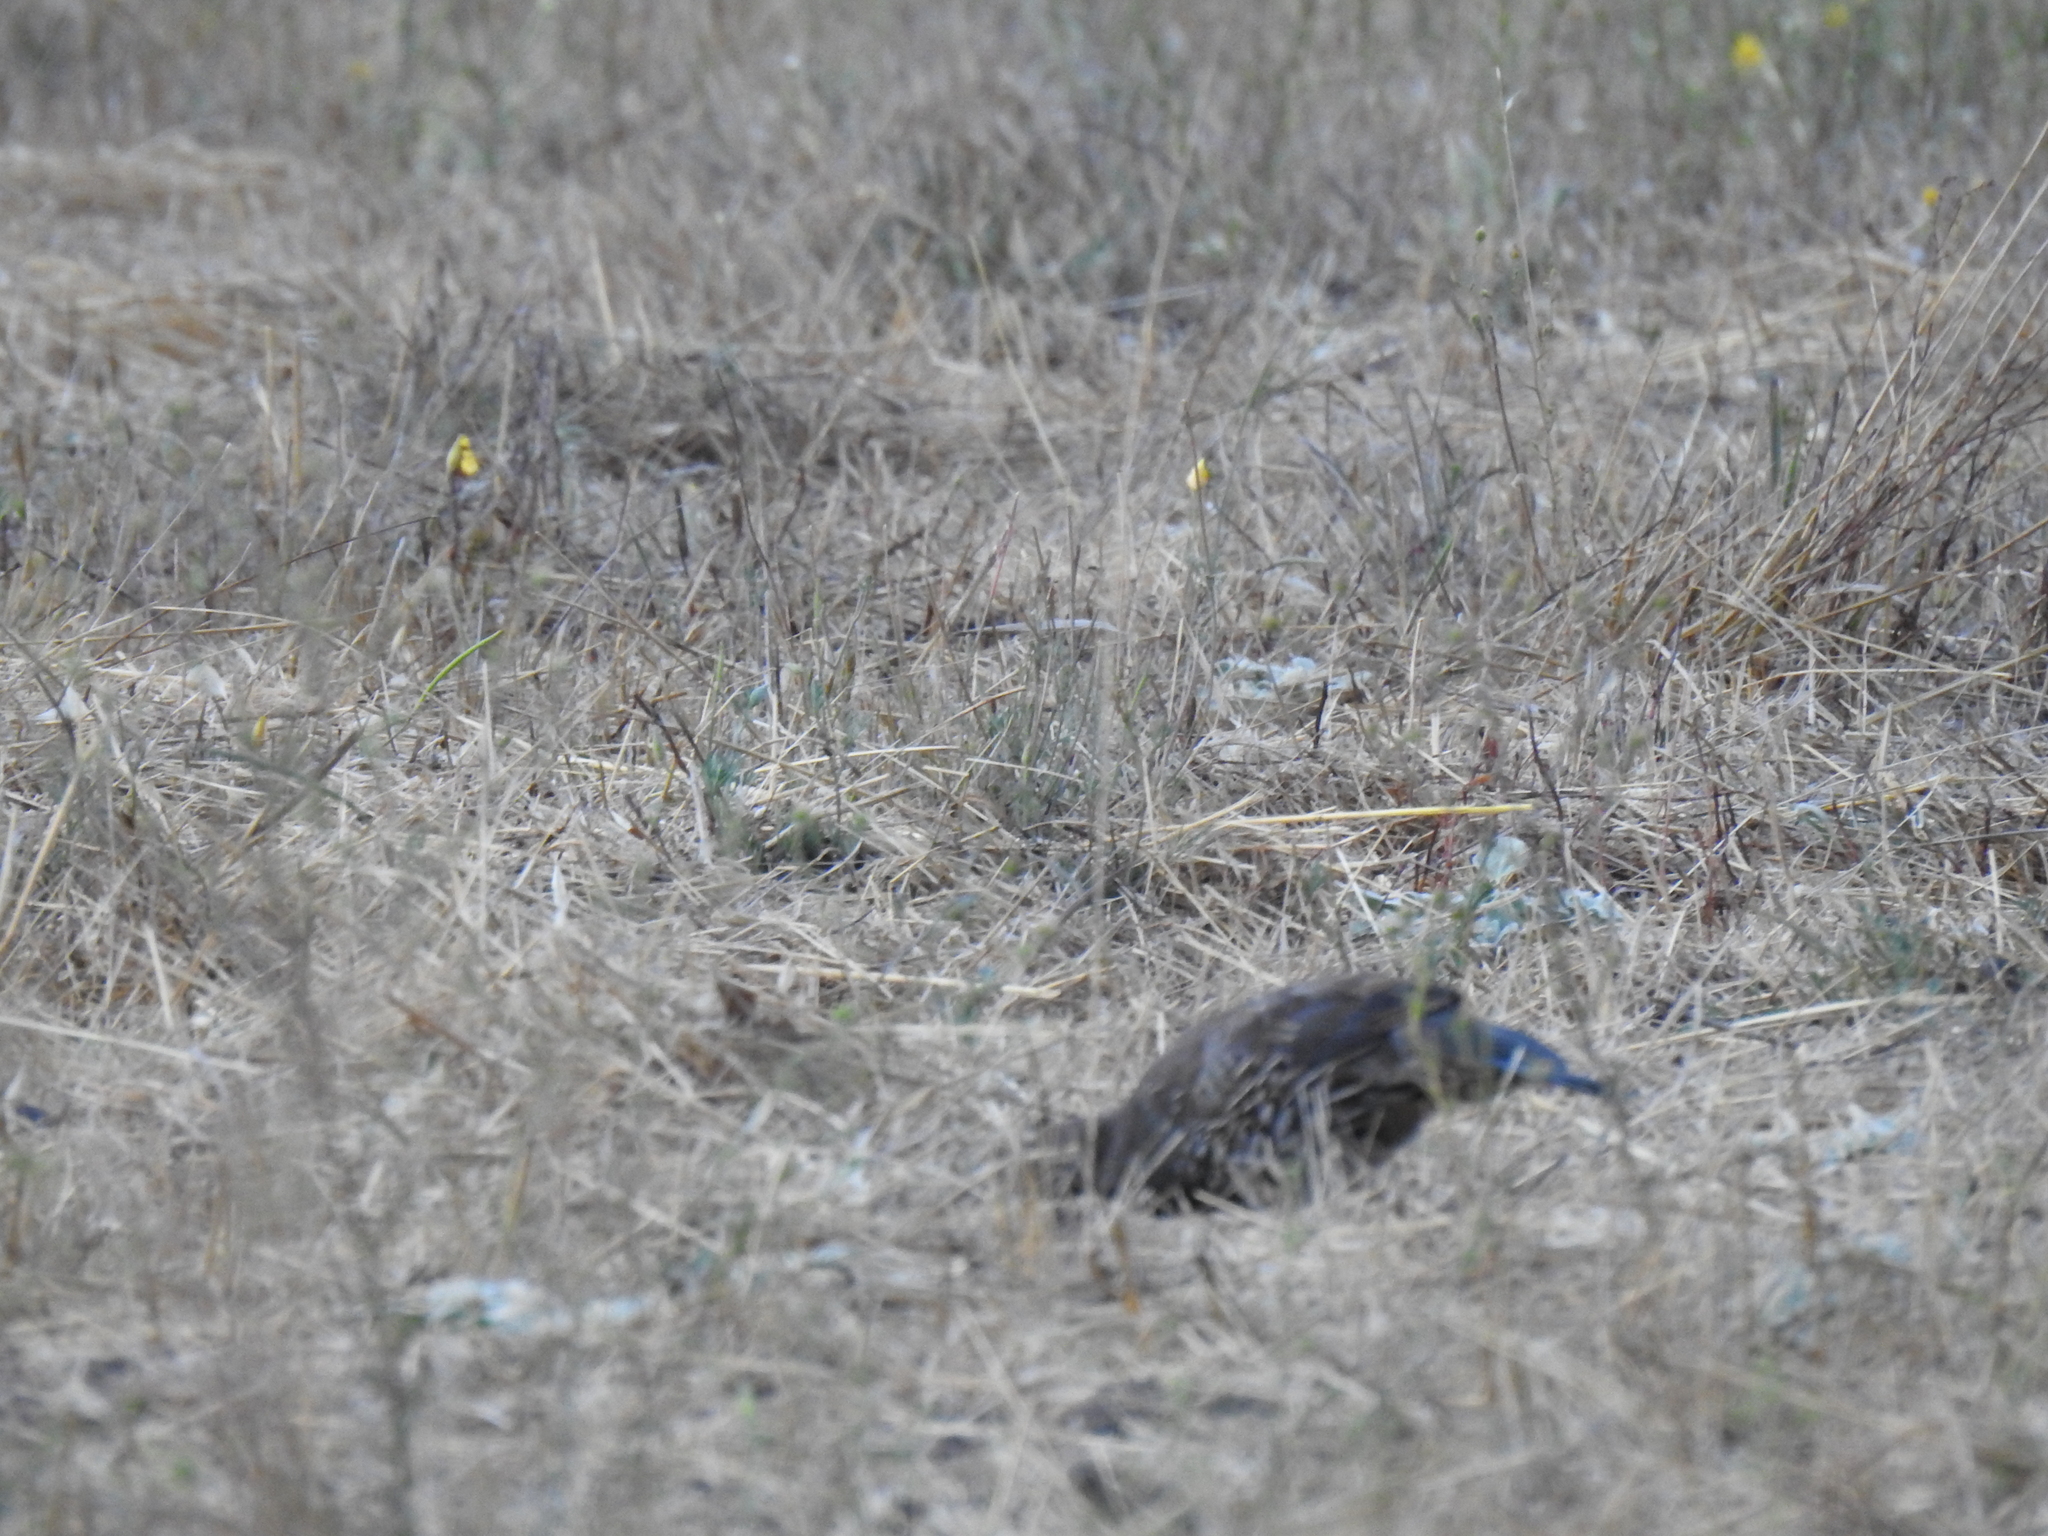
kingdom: Animalia
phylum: Chordata
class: Aves
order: Galliformes
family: Odontophoridae
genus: Callipepla
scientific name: Callipepla californica
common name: California quail
